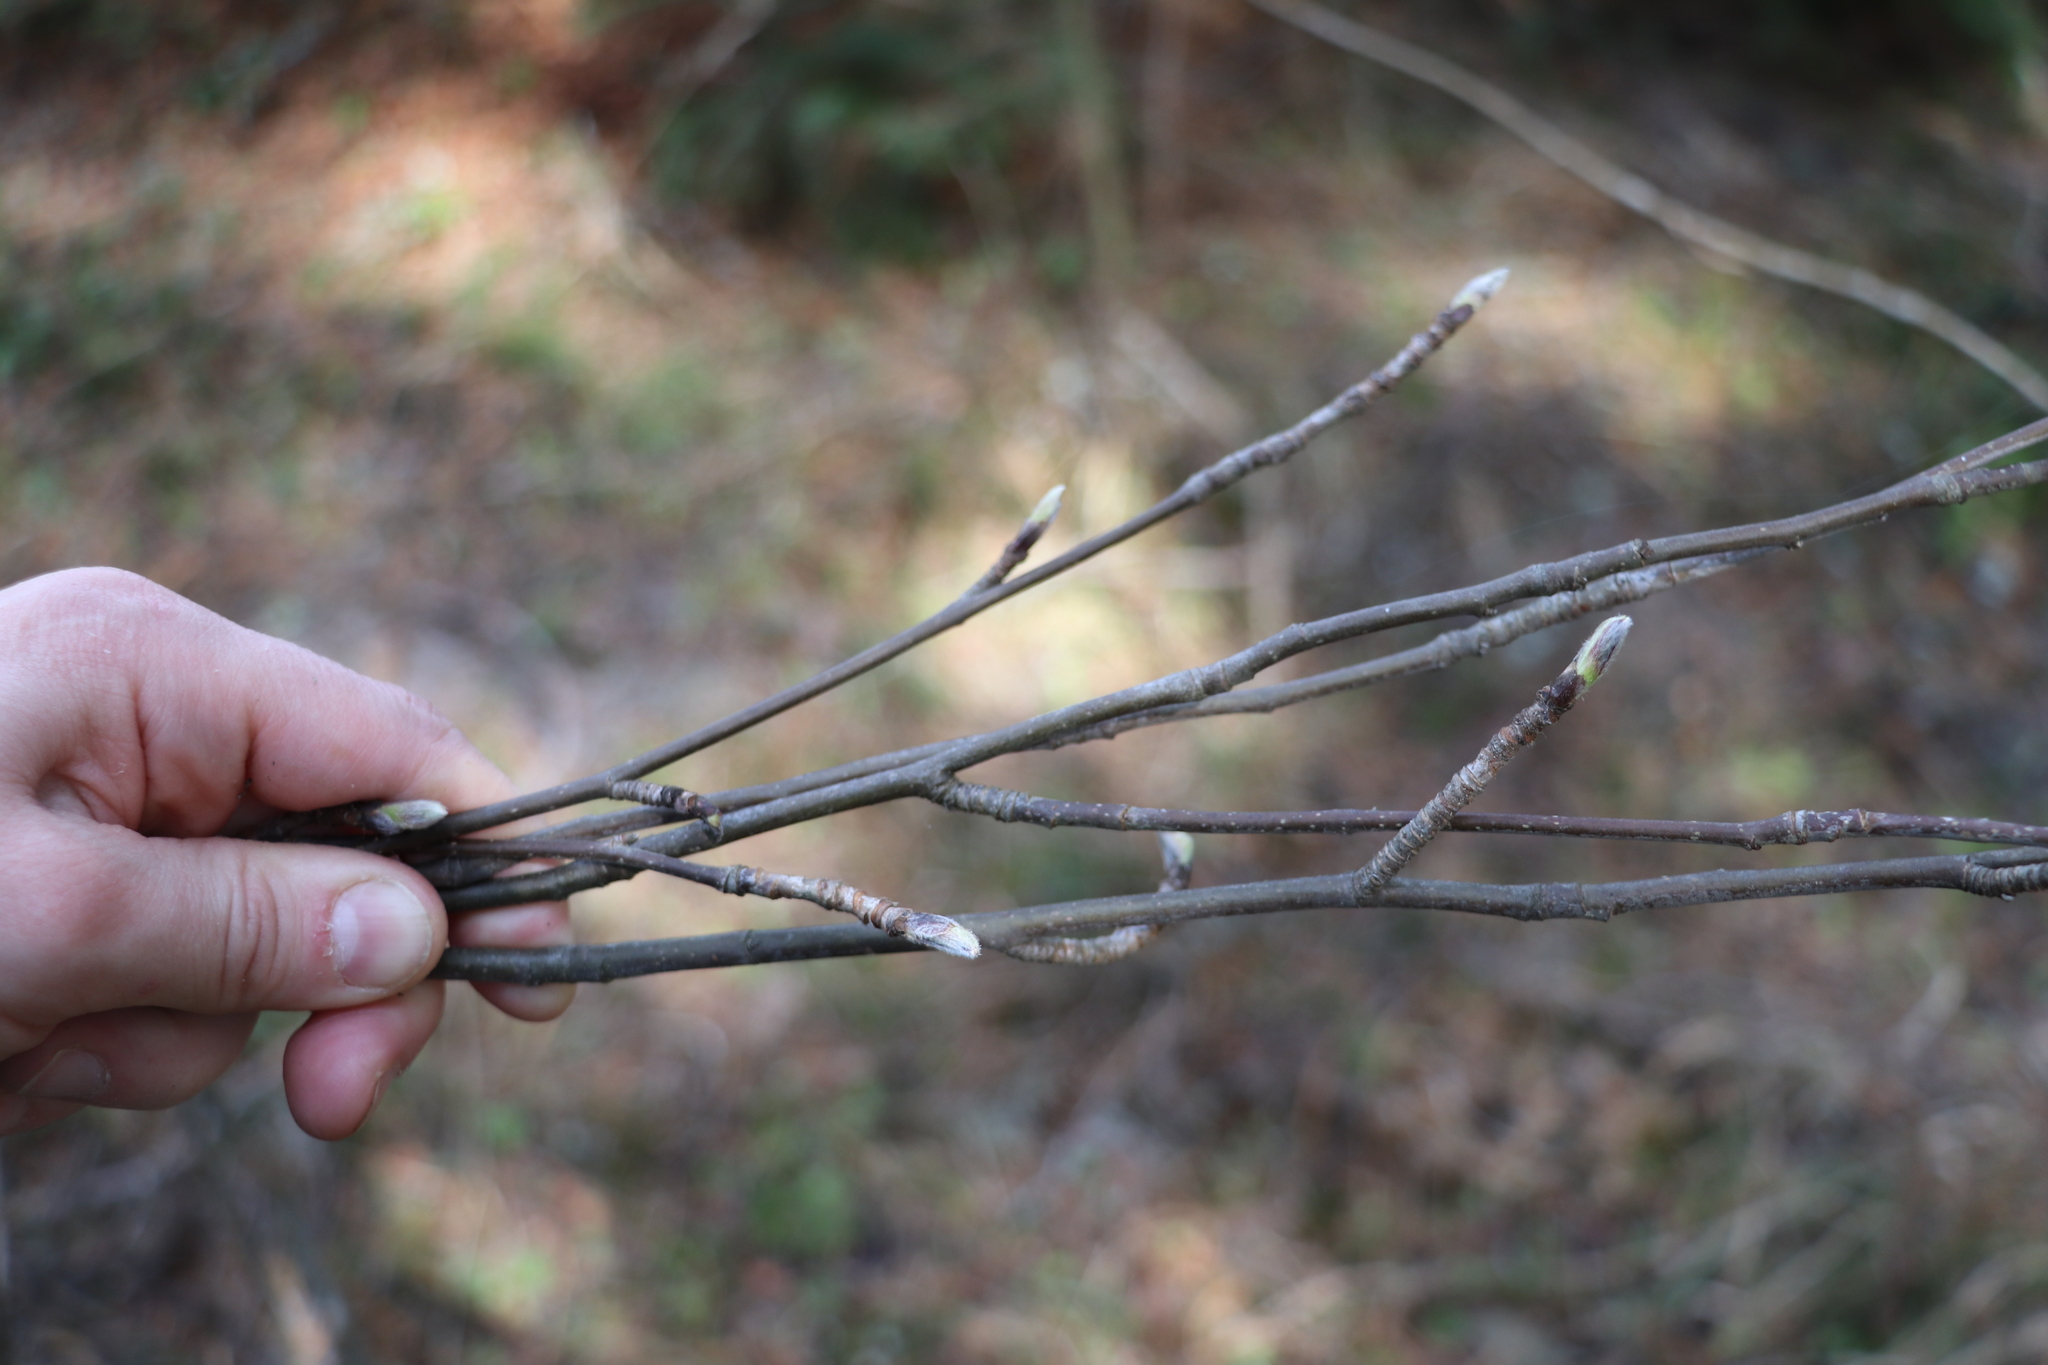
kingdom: Plantae
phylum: Tracheophyta
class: Magnoliopsida
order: Rosales
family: Rosaceae
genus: Sorbus
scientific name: Sorbus aucuparia
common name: Rowan
